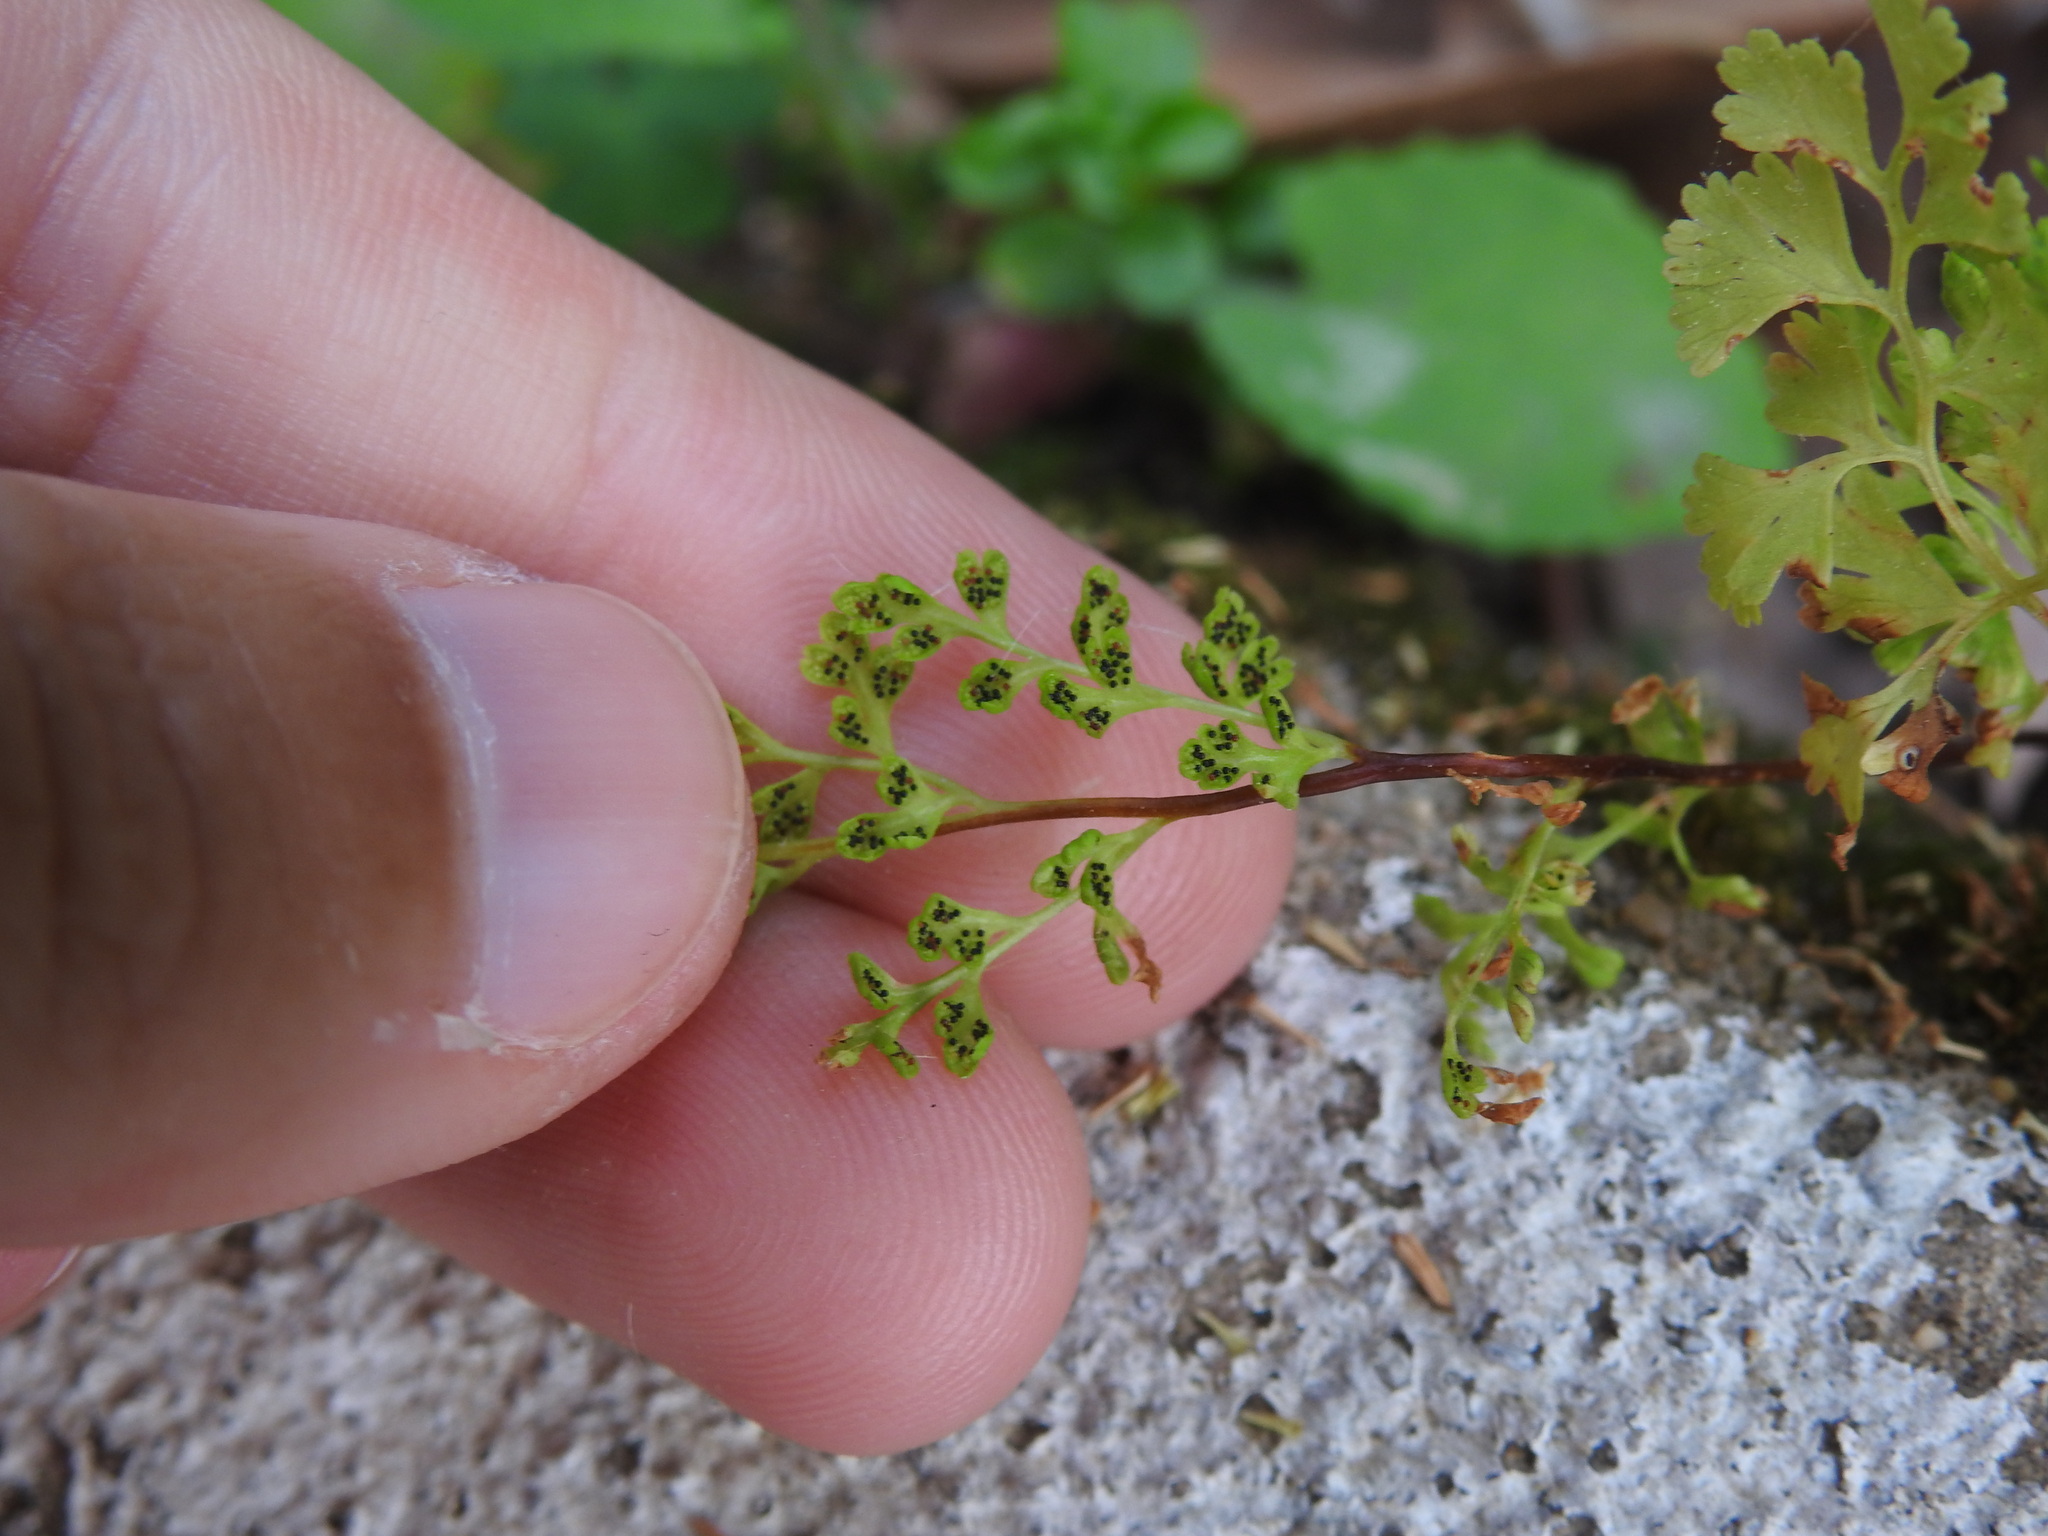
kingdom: Plantae
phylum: Tracheophyta
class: Polypodiopsida
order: Polypodiales
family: Pteridaceae
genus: Anogramma
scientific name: Anogramma leptophylla
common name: Jersey fern
